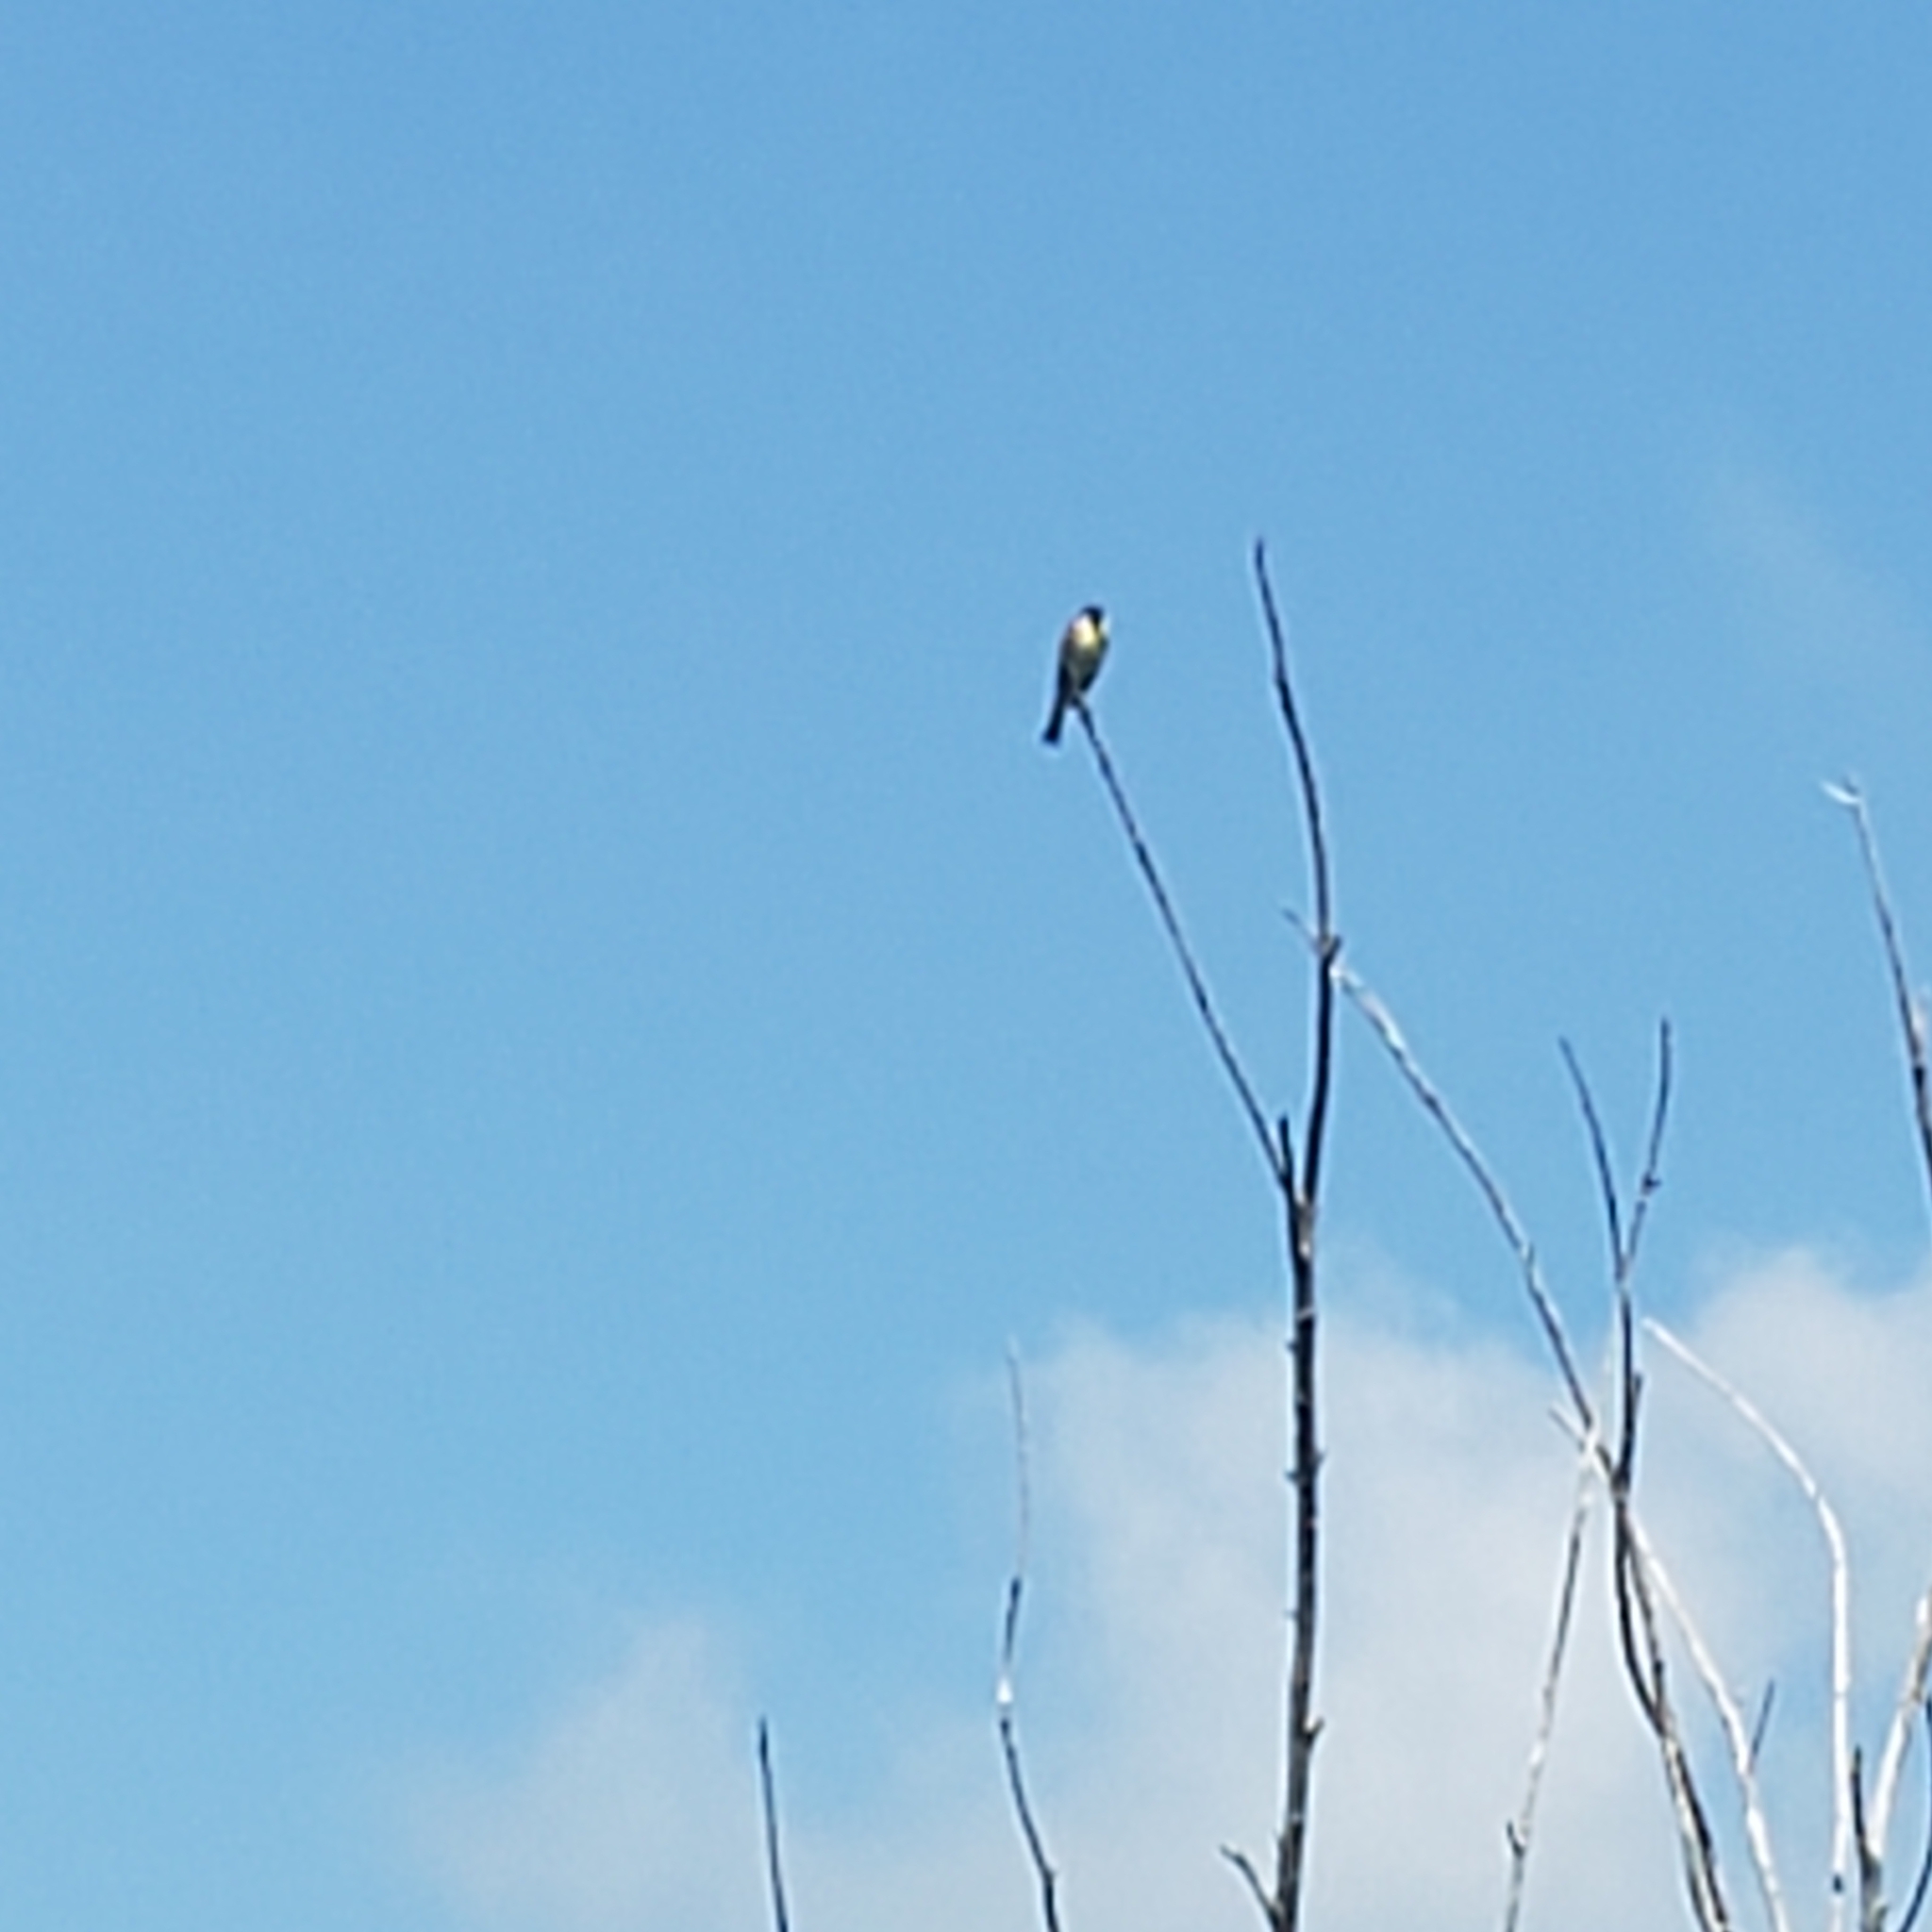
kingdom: Animalia
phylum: Chordata
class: Aves
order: Passeriformes
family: Cardinalidae
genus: Spiza
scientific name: Spiza americana
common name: Dickcissel
